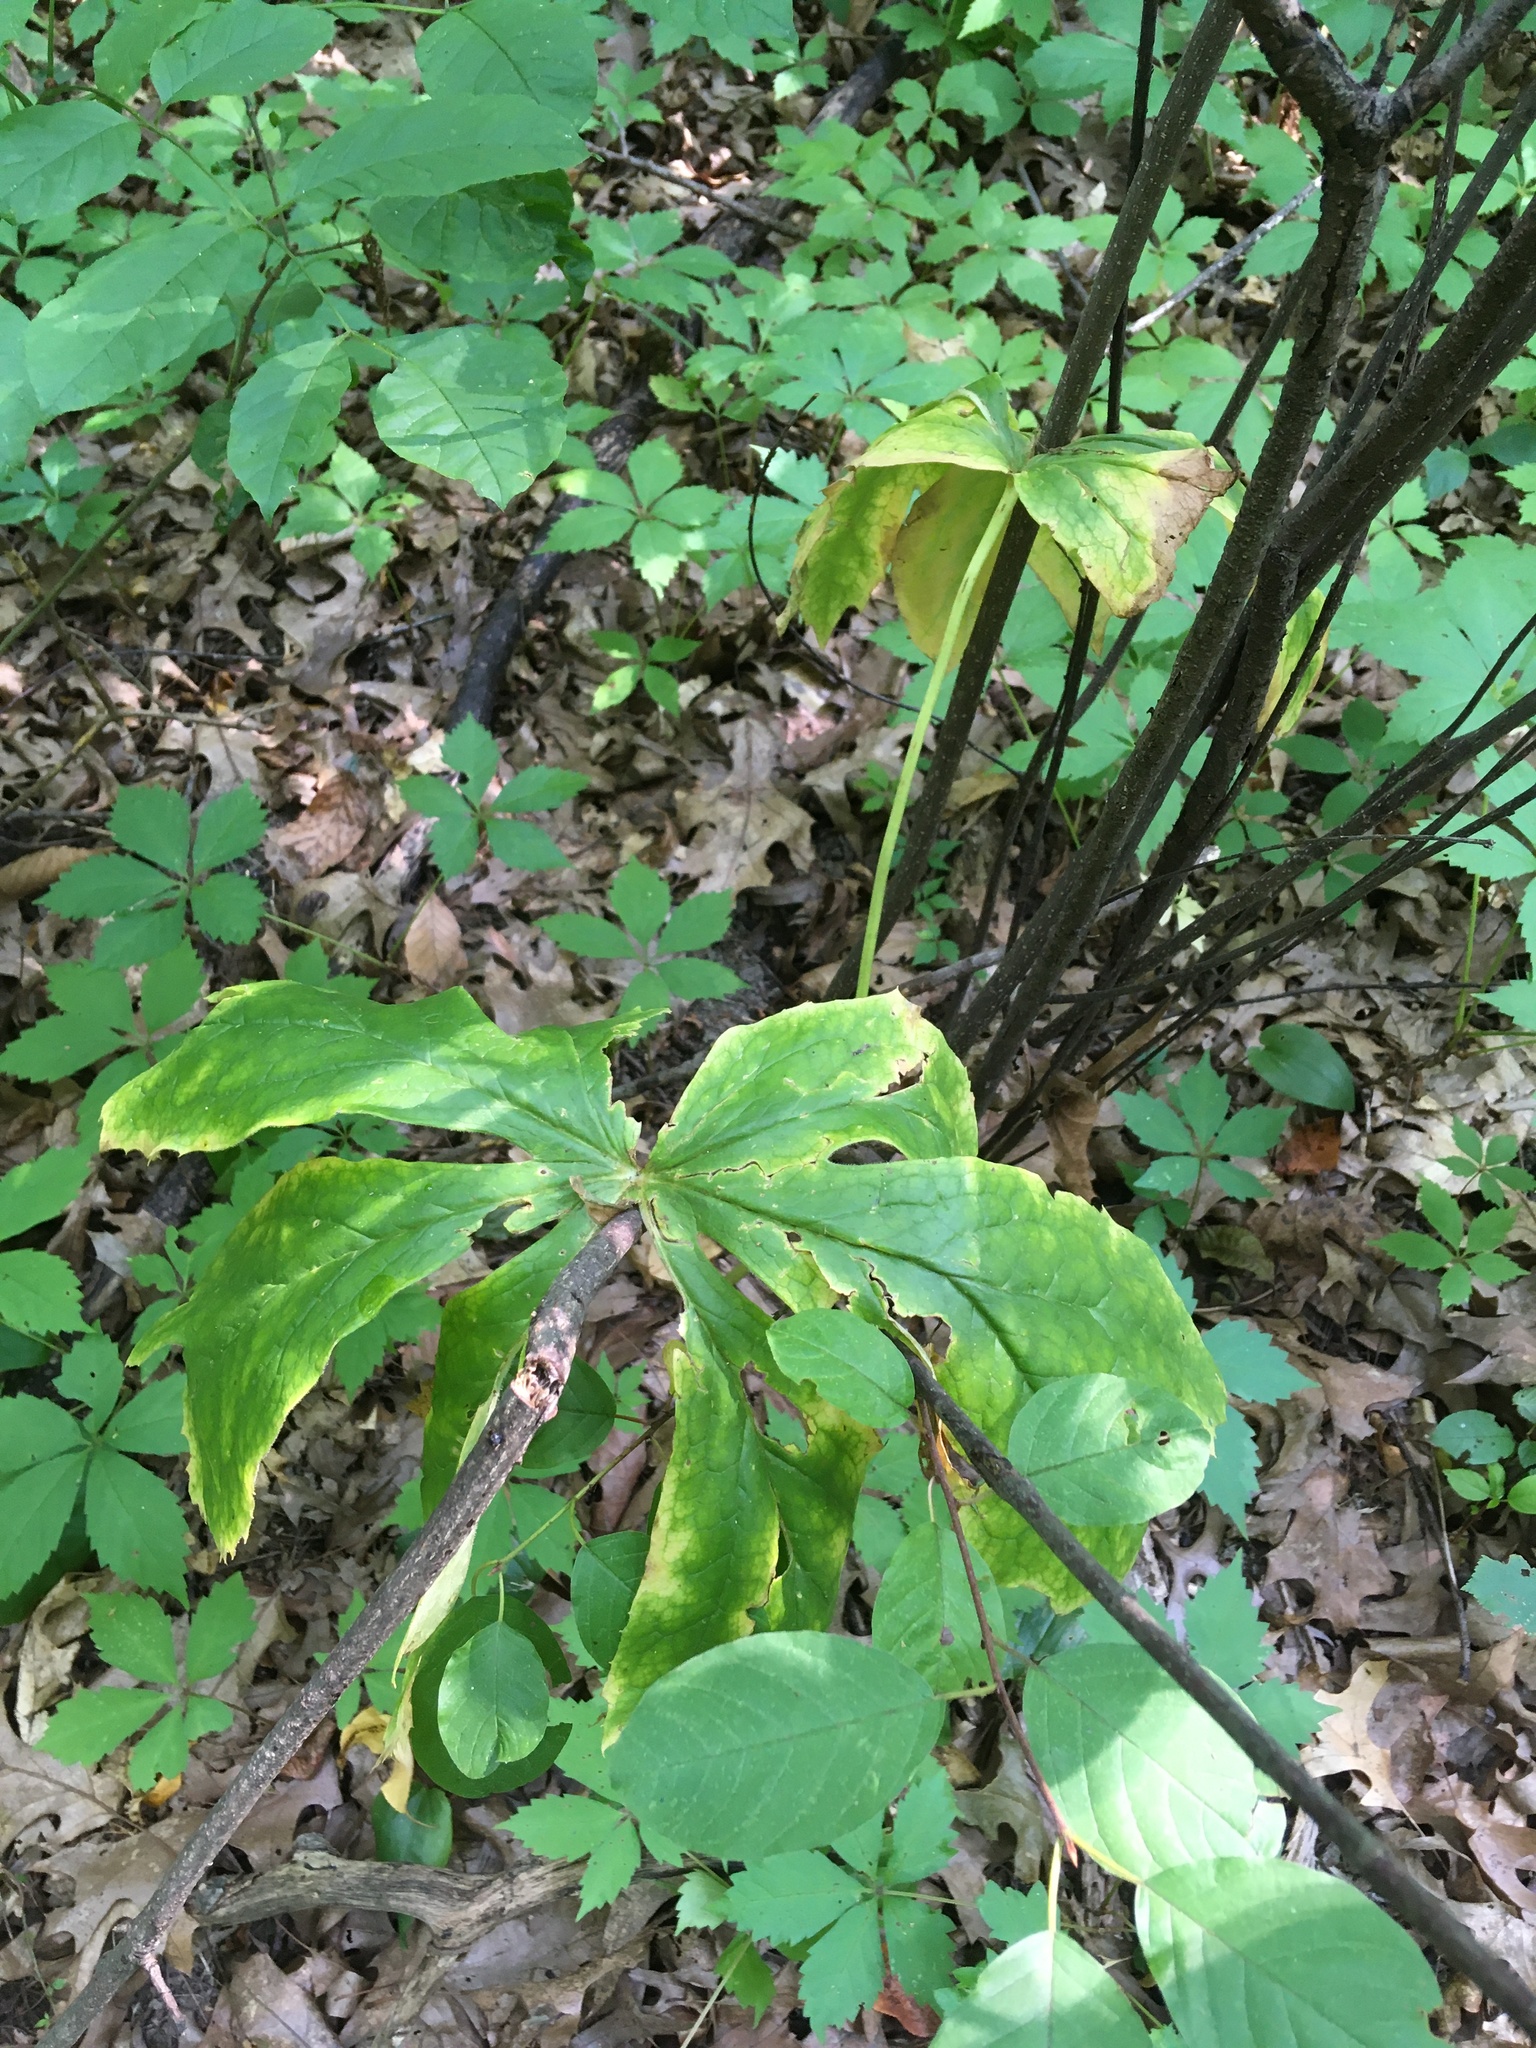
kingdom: Plantae
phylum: Tracheophyta
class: Magnoliopsida
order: Ranunculales
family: Berberidaceae
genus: Podophyllum
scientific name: Podophyllum peltatum
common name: Wild mandrake
